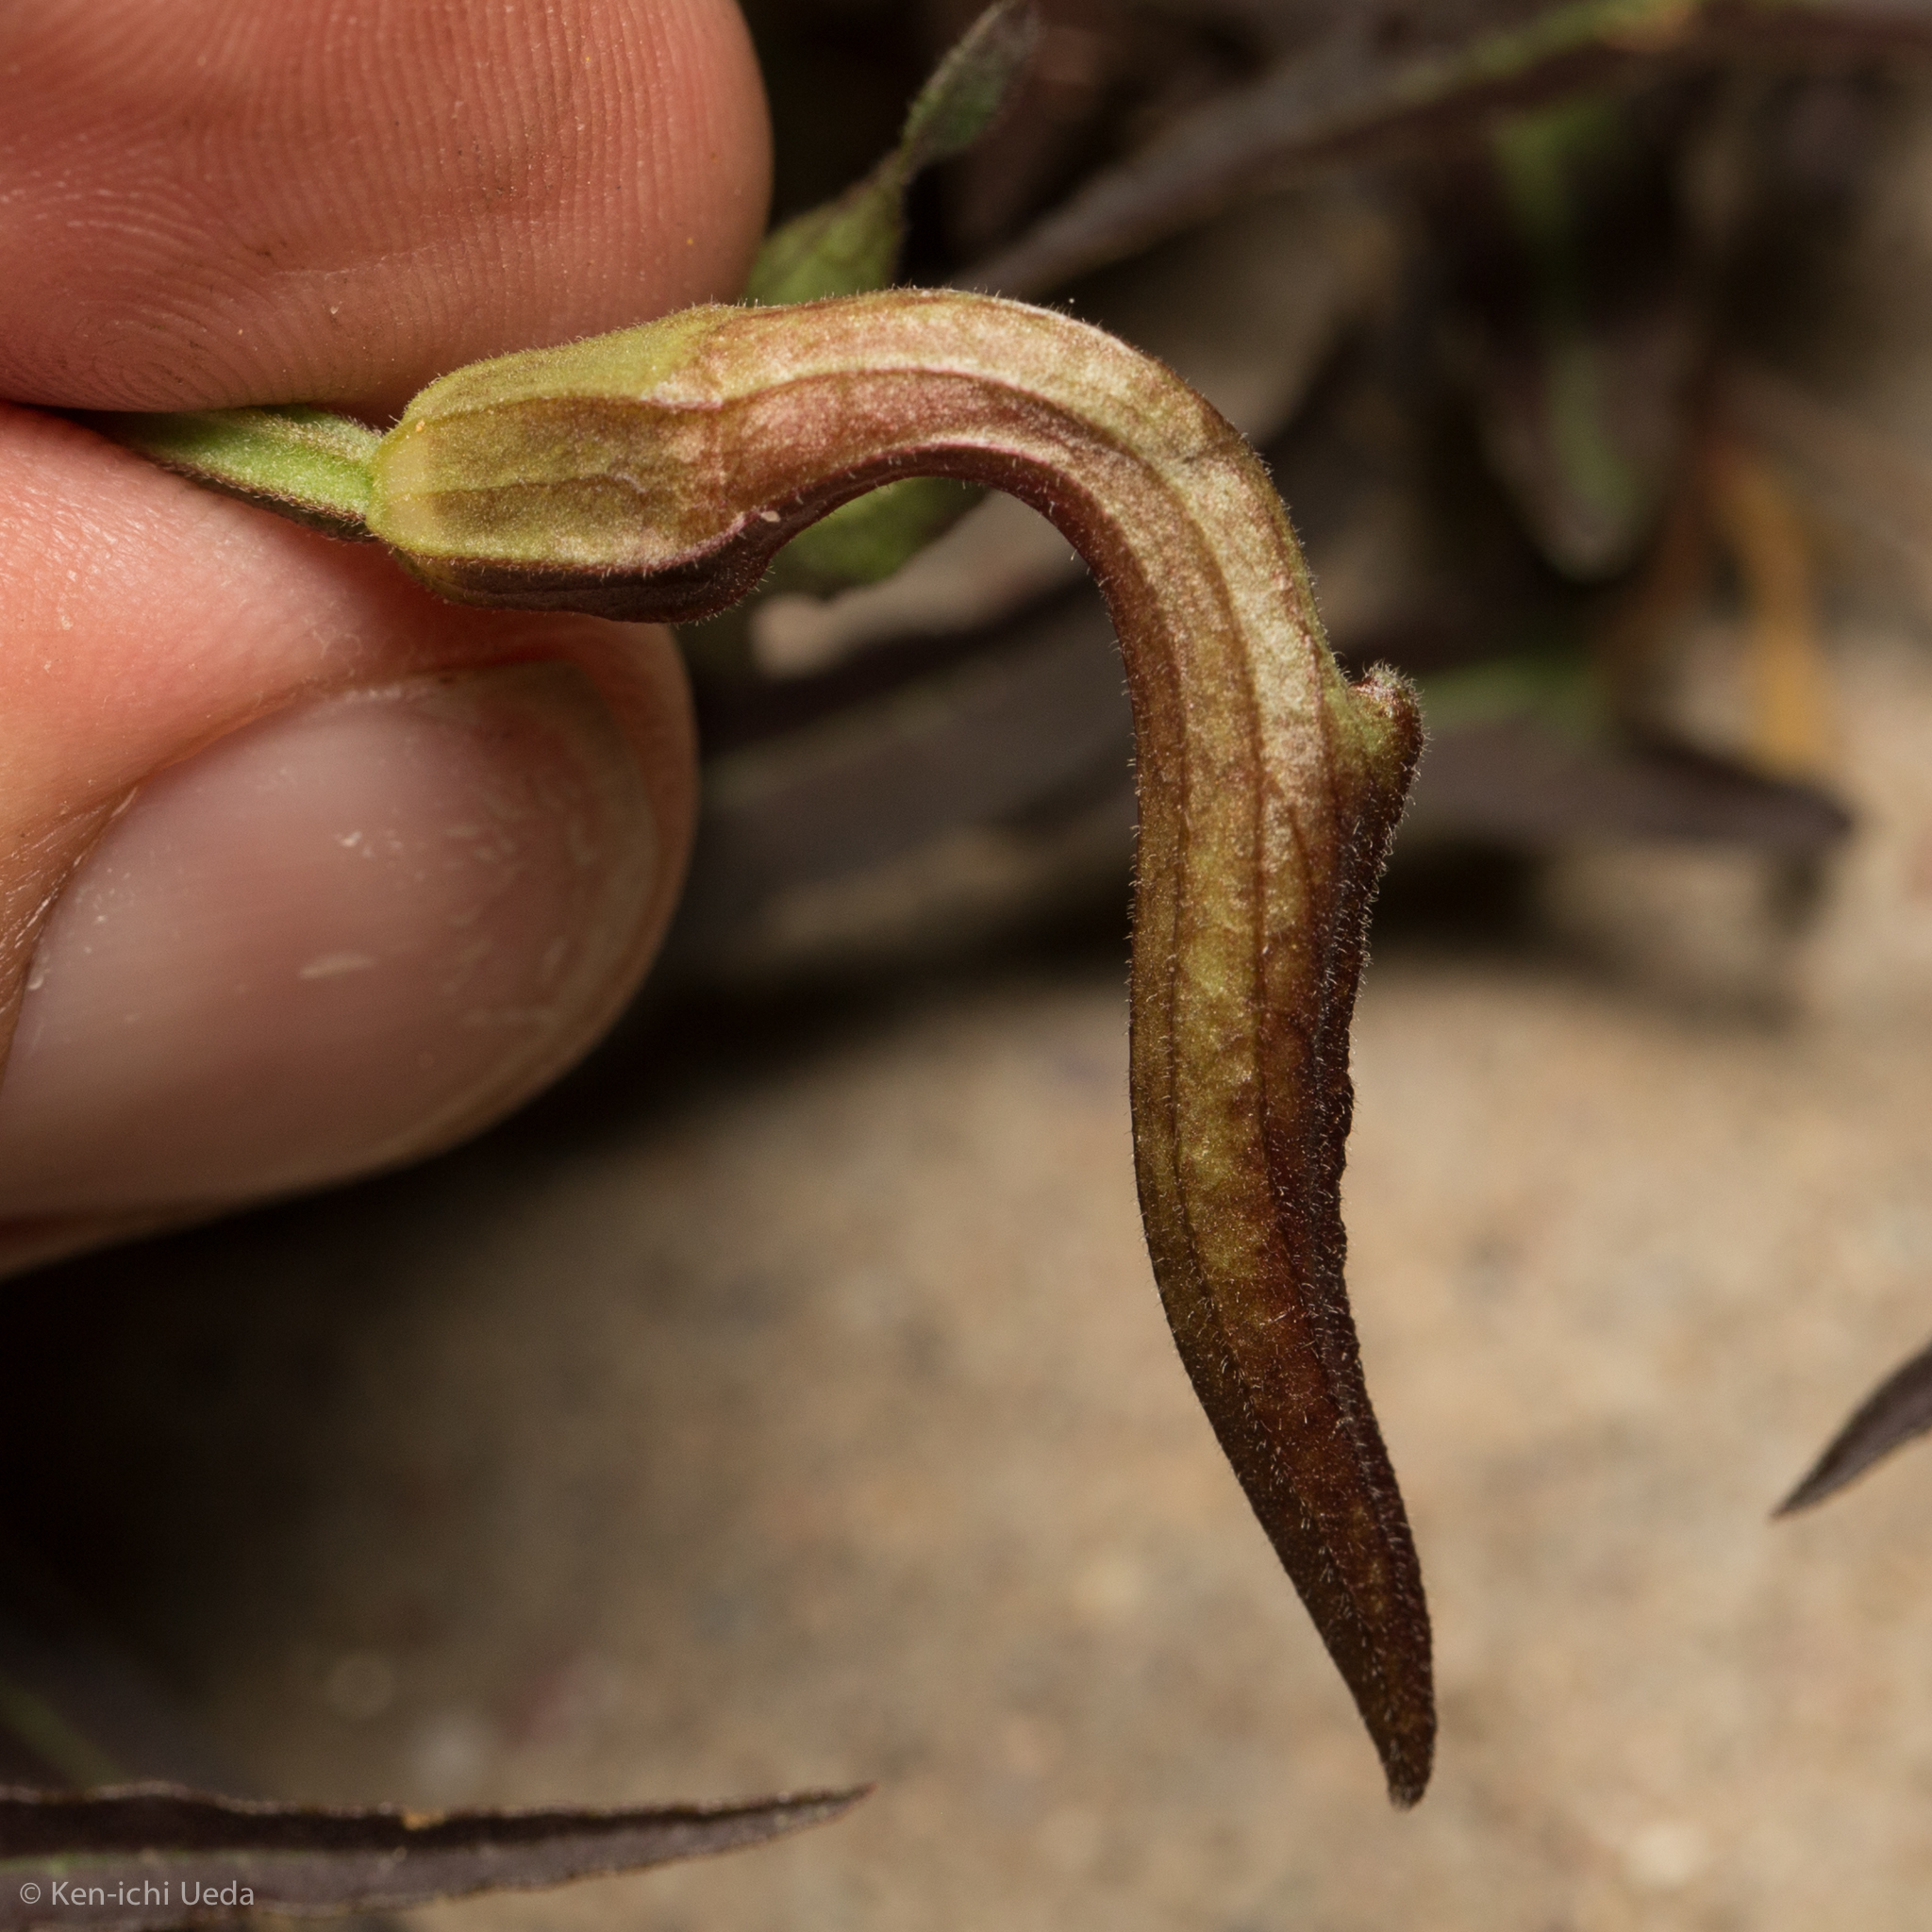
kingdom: Plantae
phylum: Tracheophyta
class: Magnoliopsida
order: Piperales
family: Aristolochiaceae
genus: Aristolochia
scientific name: Aristolochia watsonii
